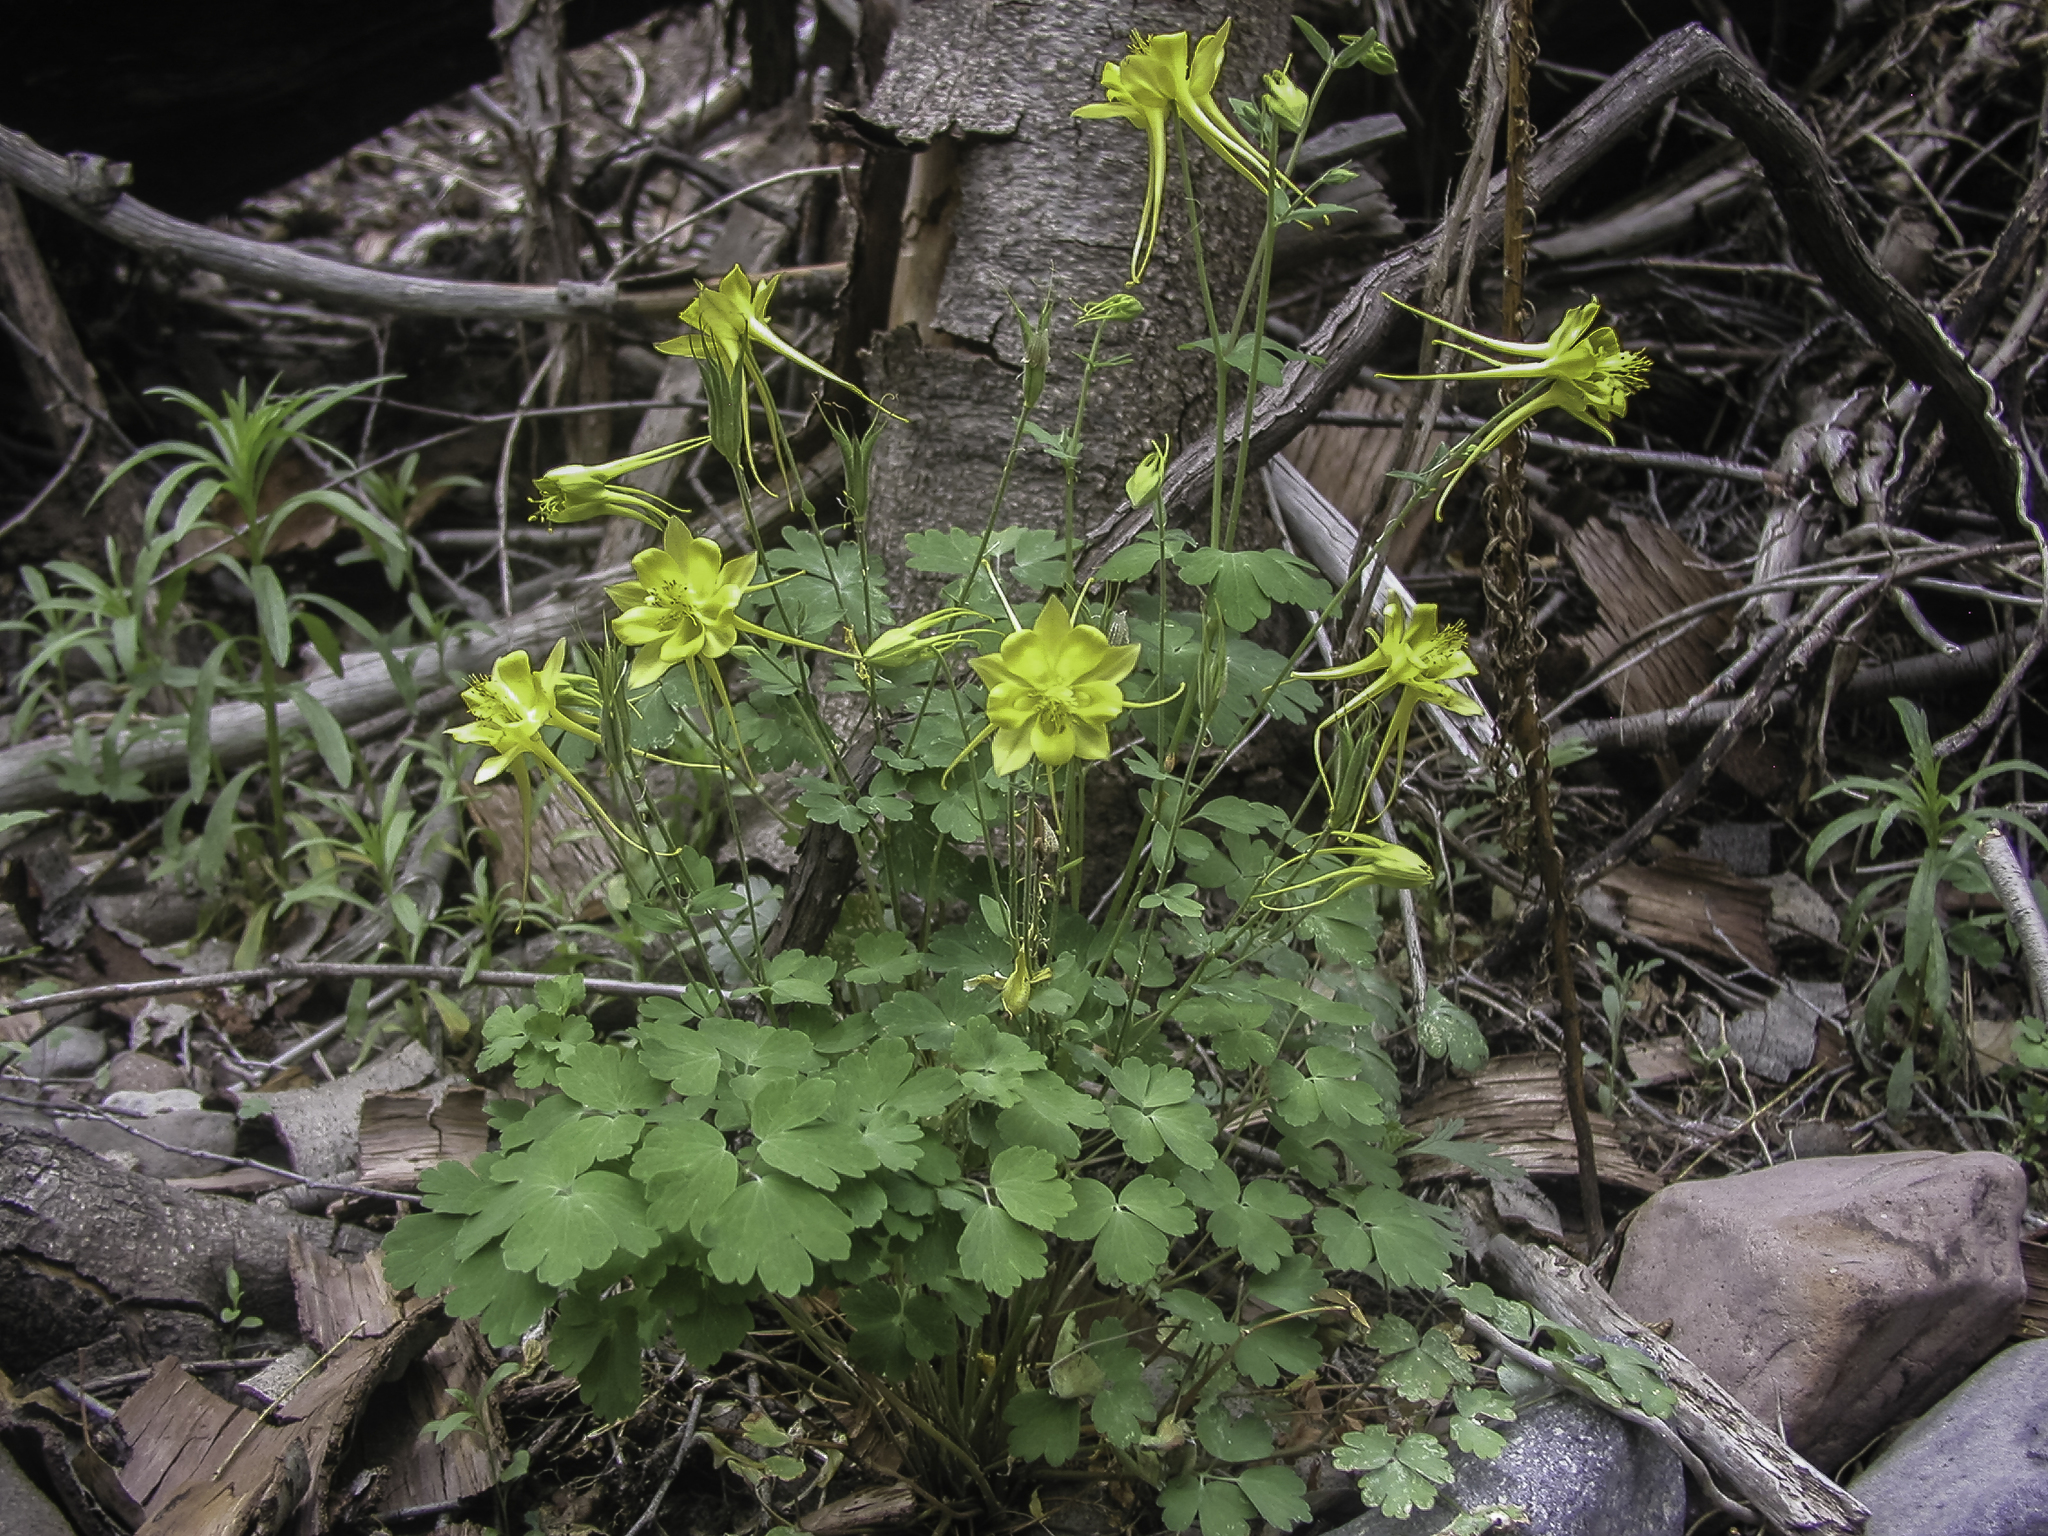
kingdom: Plantae
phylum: Tracheophyta
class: Magnoliopsida
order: Ranunculales
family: Ranunculaceae
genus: Aquilegia
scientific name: Aquilegia chrysantha
